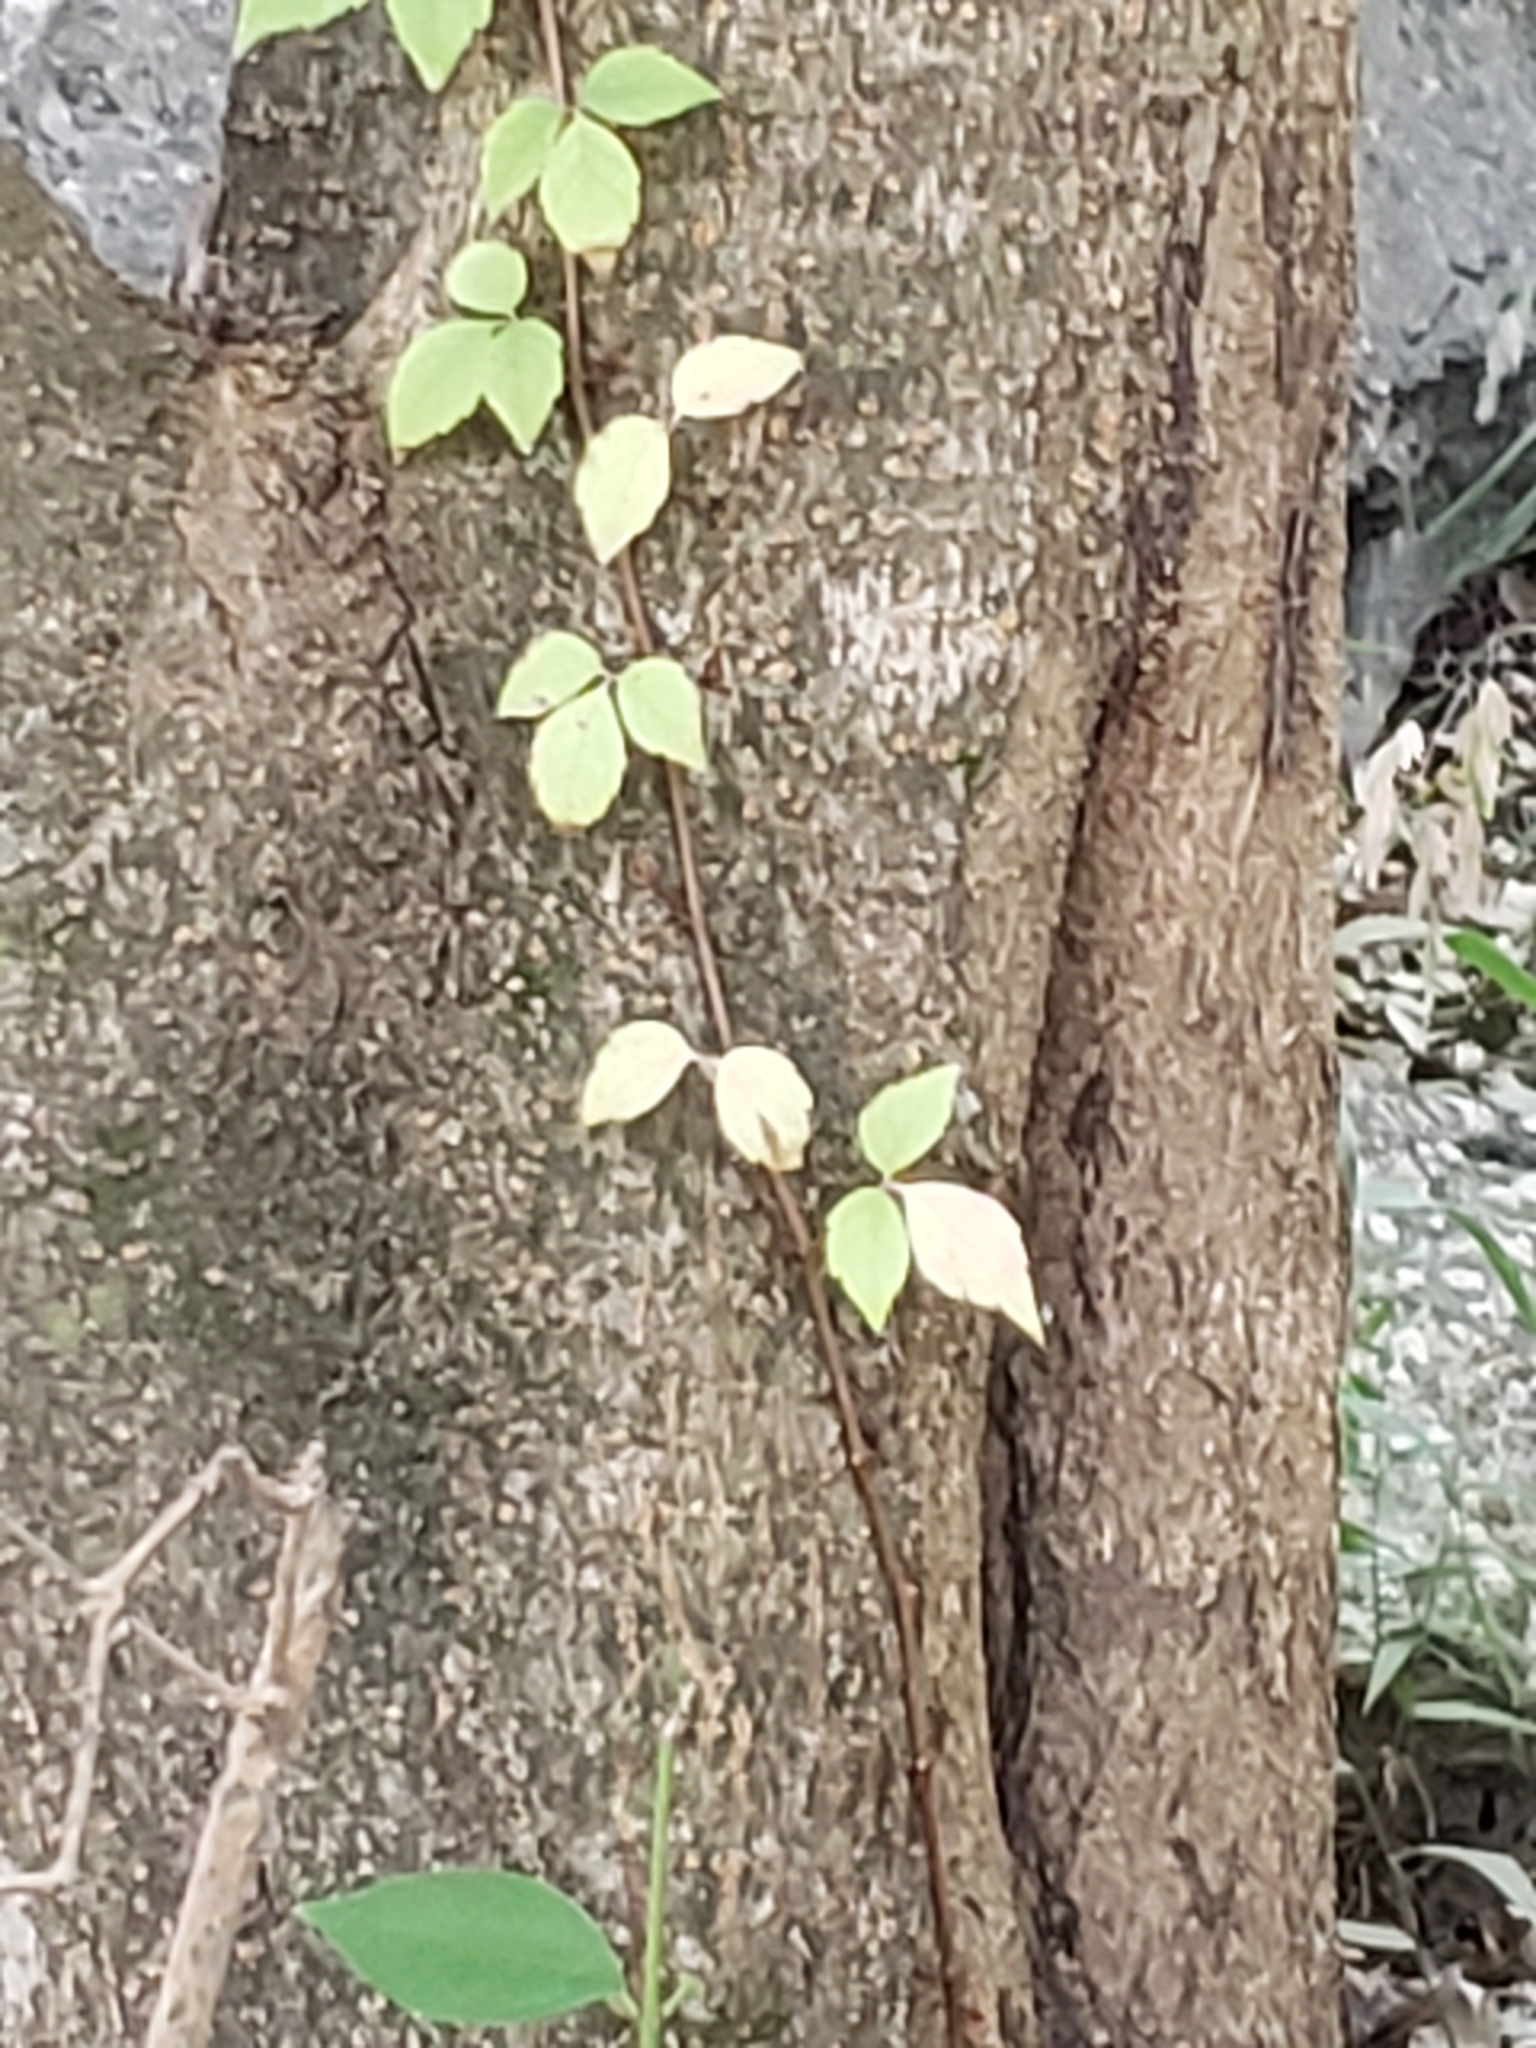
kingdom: Plantae
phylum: Tracheophyta
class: Magnoliopsida
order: Sapindales
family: Anacardiaceae
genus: Toxicodendron
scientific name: Toxicodendron radicans
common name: Poison ivy
